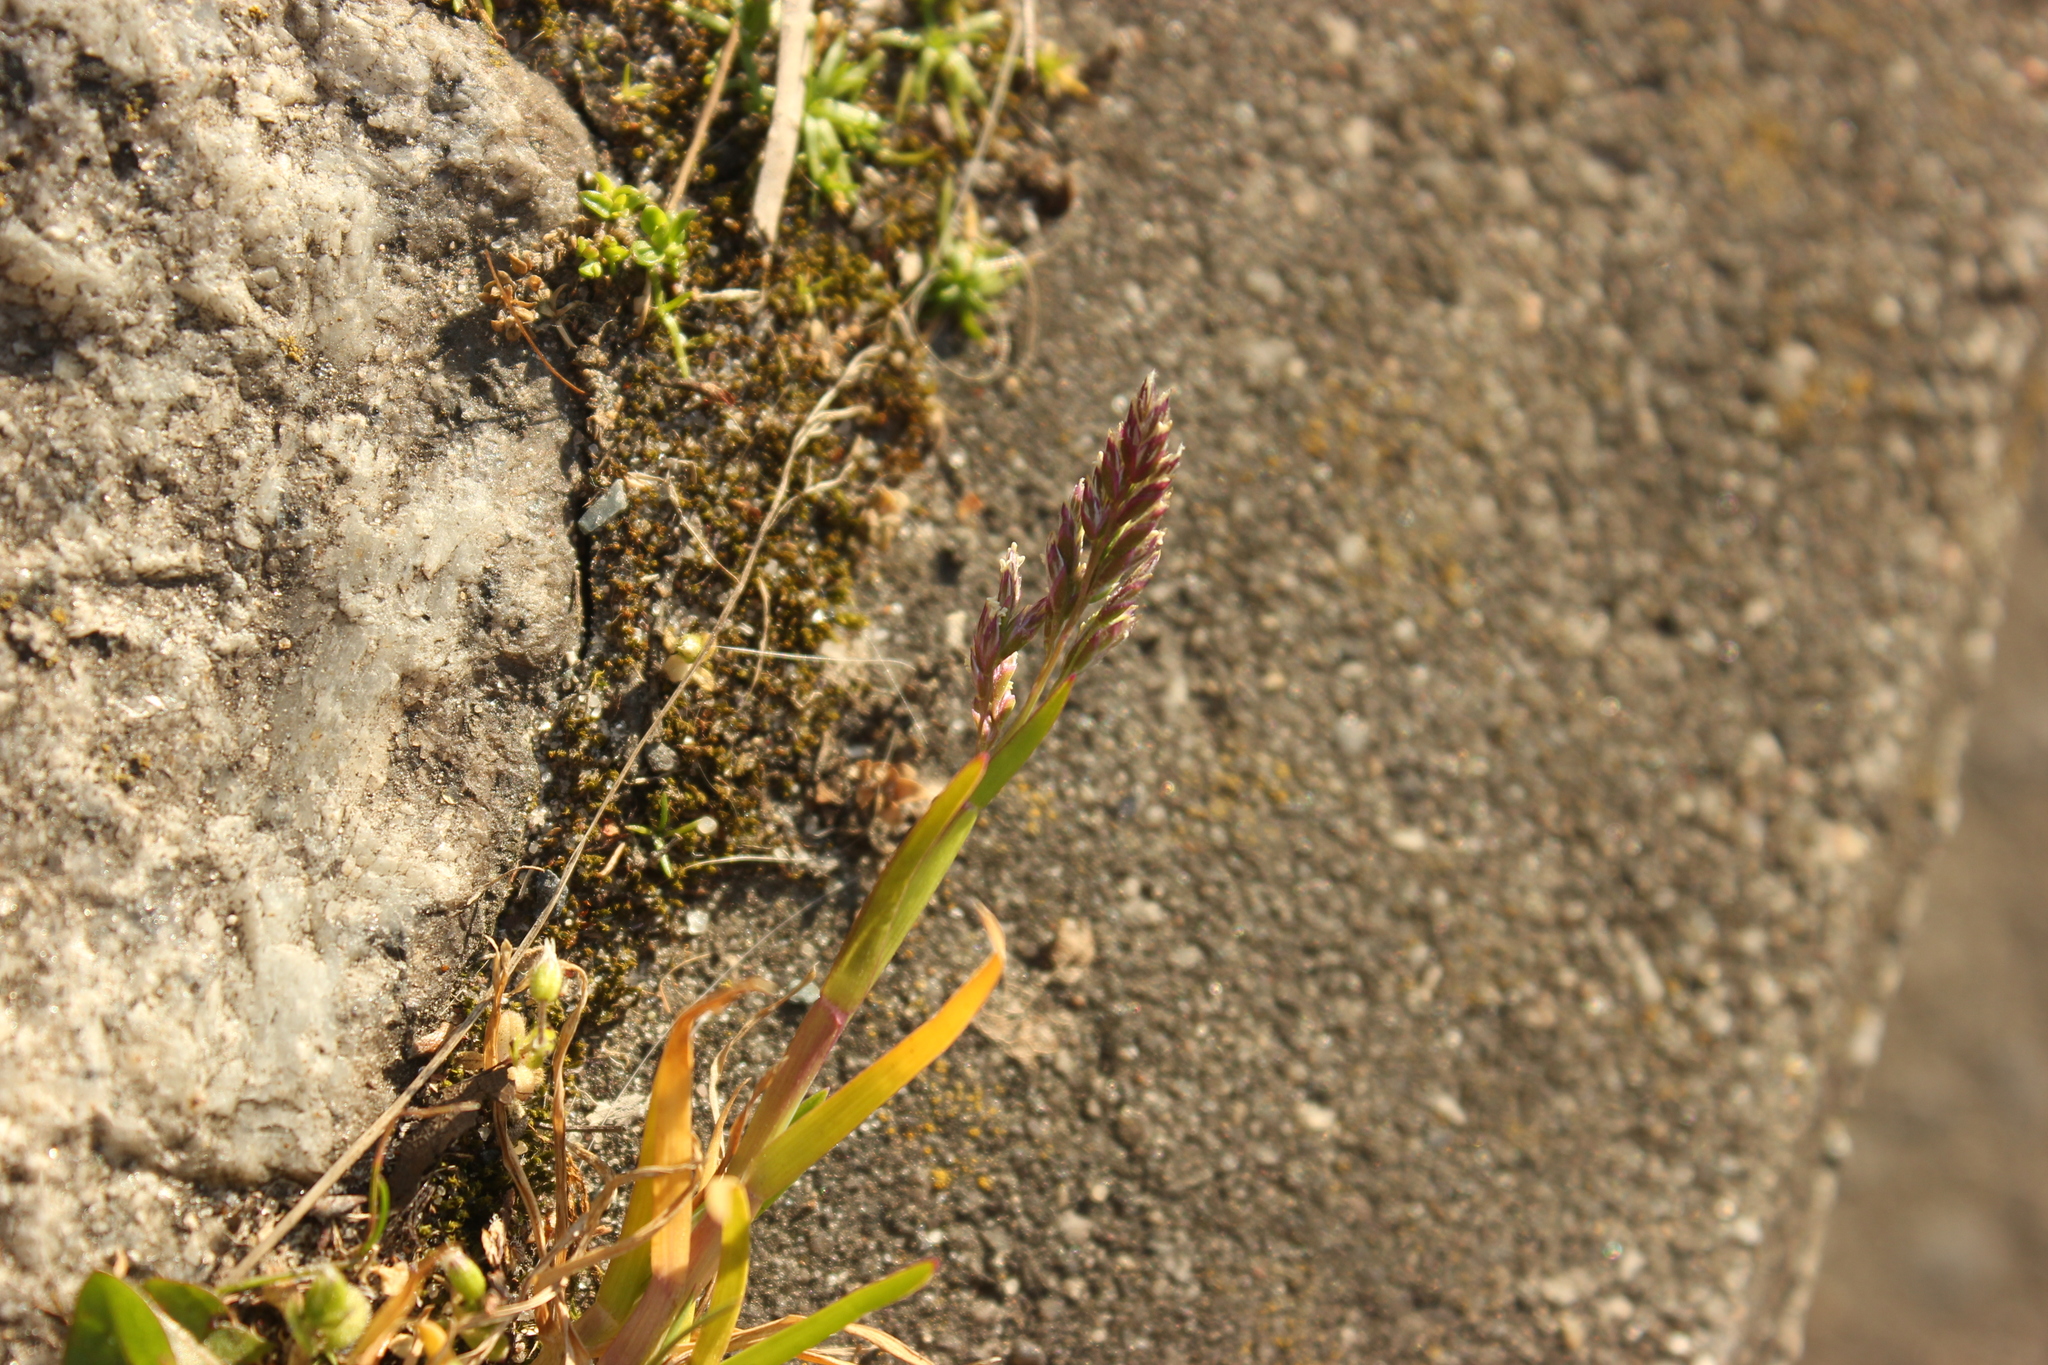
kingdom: Plantae
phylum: Tracheophyta
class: Liliopsida
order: Poales
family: Poaceae
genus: Poa
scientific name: Poa annua
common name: Annual bluegrass
